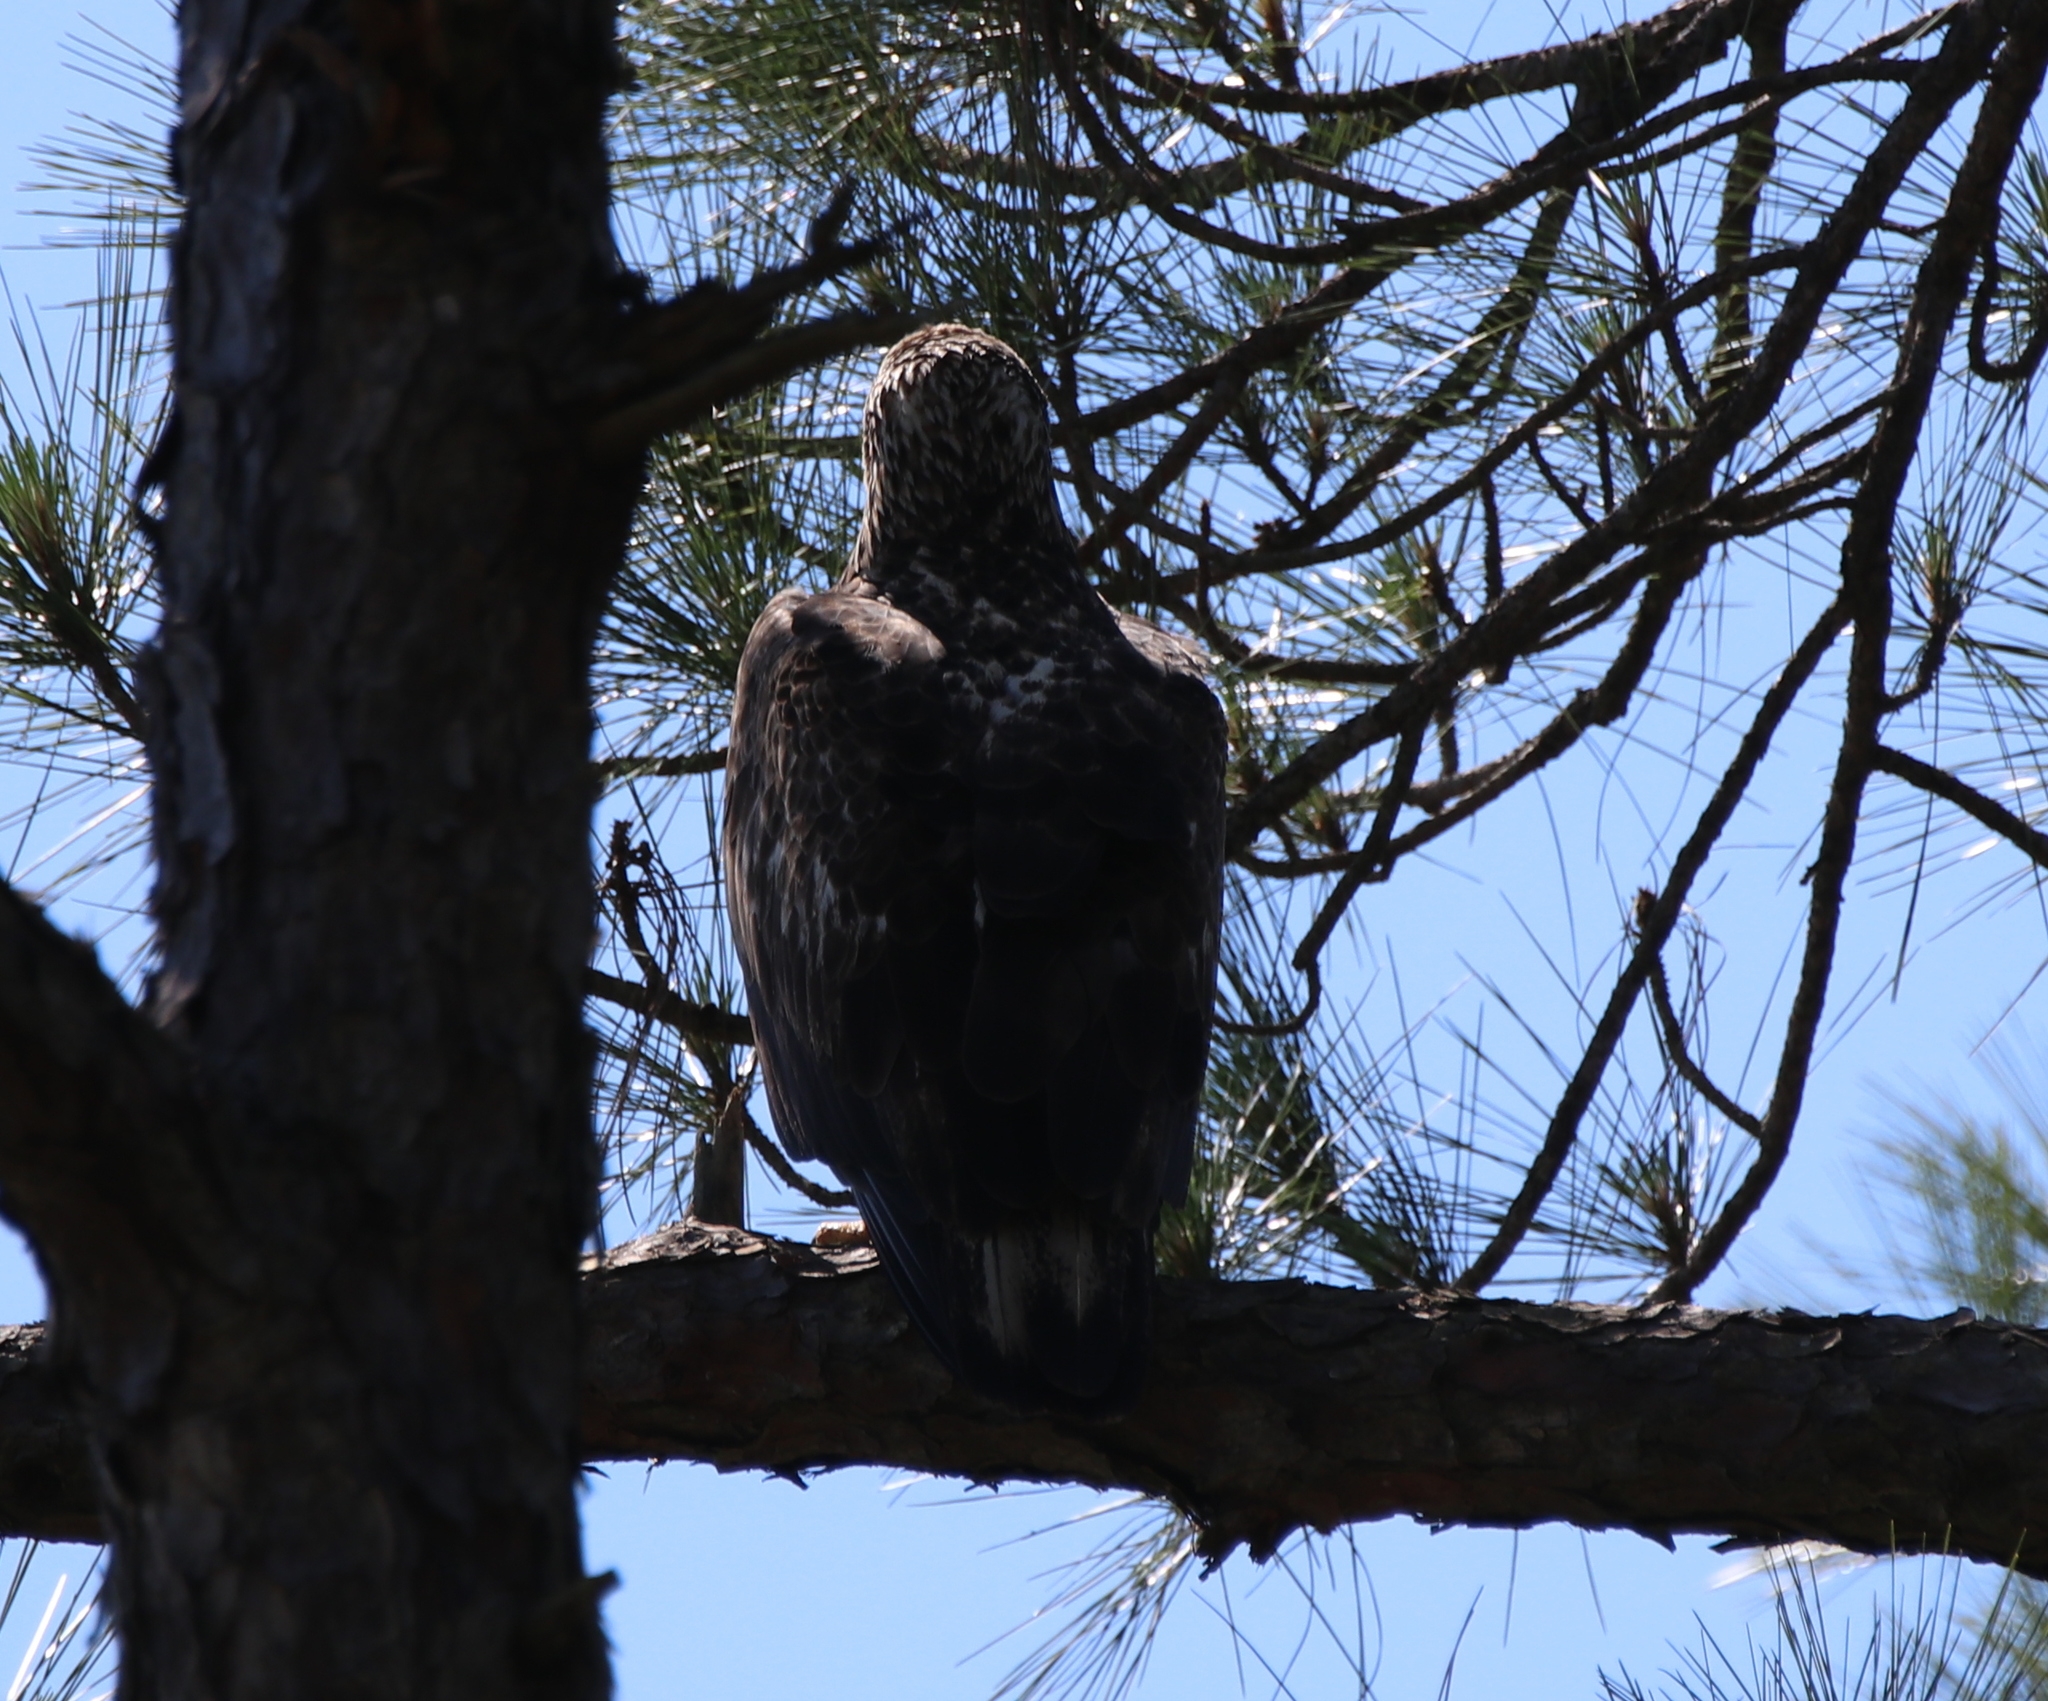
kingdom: Animalia
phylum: Chordata
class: Aves
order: Accipitriformes
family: Accipitridae
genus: Haliaeetus
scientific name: Haliaeetus leucocephalus
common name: Bald eagle
